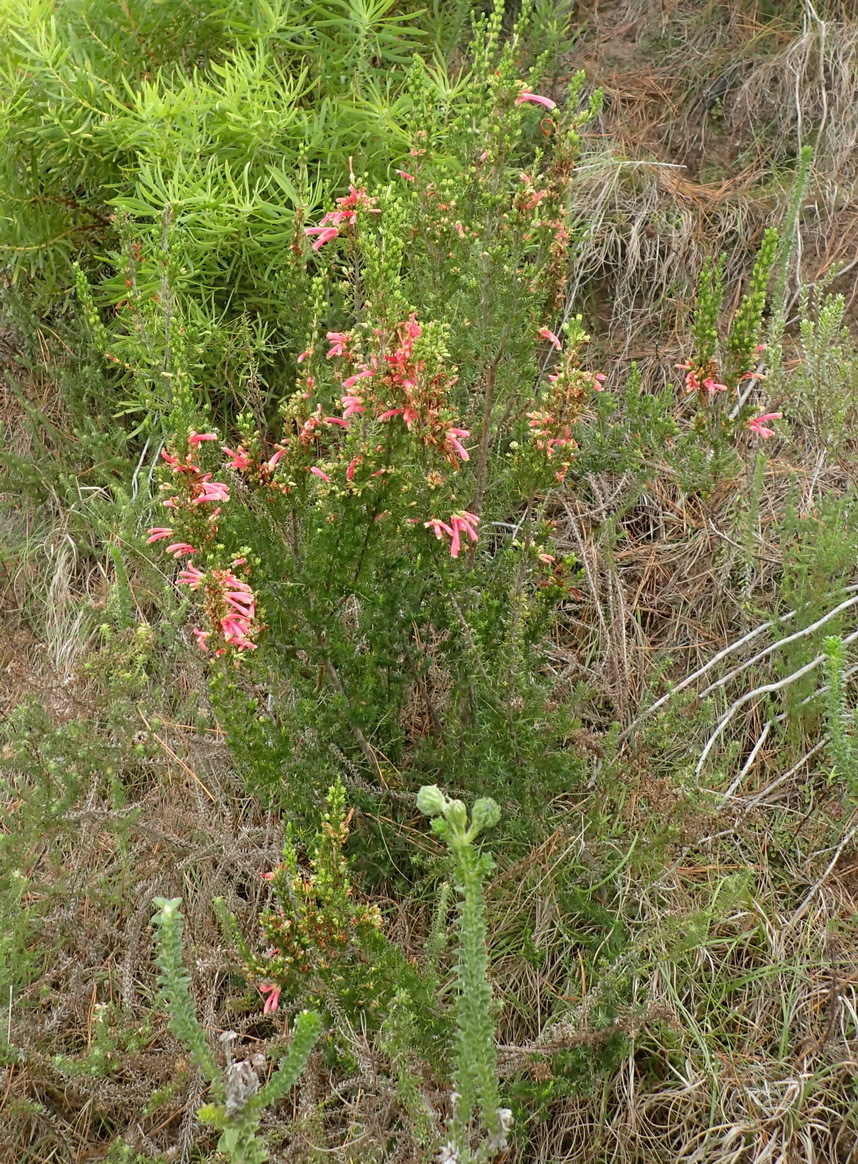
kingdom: Plantae
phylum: Tracheophyta
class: Magnoliopsida
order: Ericales
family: Ericaceae
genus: Erica
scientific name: Erica discolor
